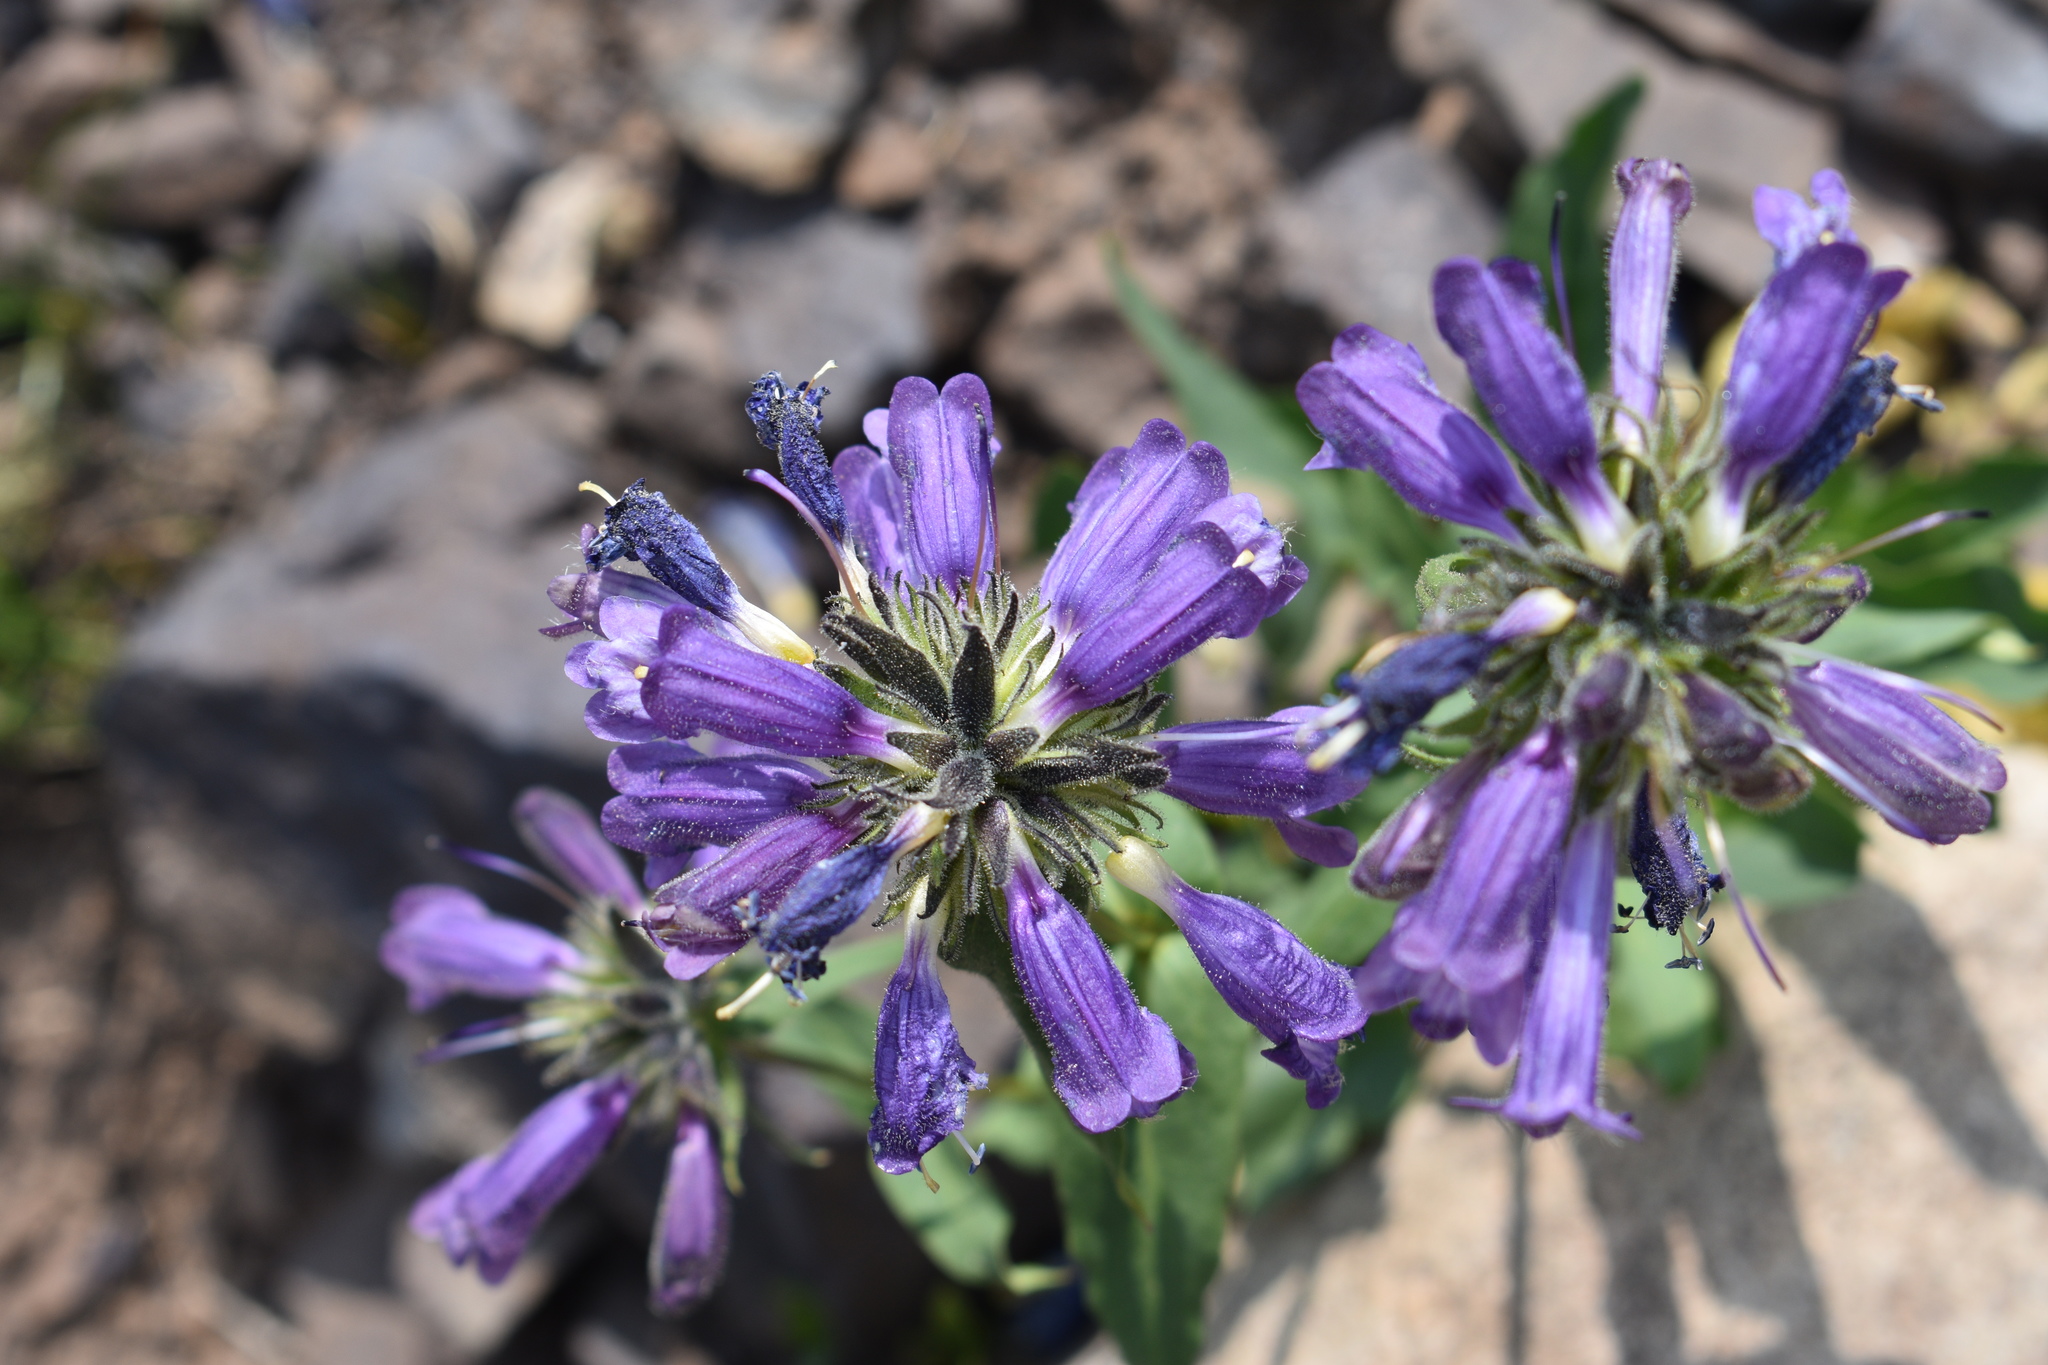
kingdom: Plantae
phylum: Tracheophyta
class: Magnoliopsida
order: Lamiales
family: Plantaginaceae
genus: Penstemon
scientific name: Penstemon whippleanus
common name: Whipple's penstemon
